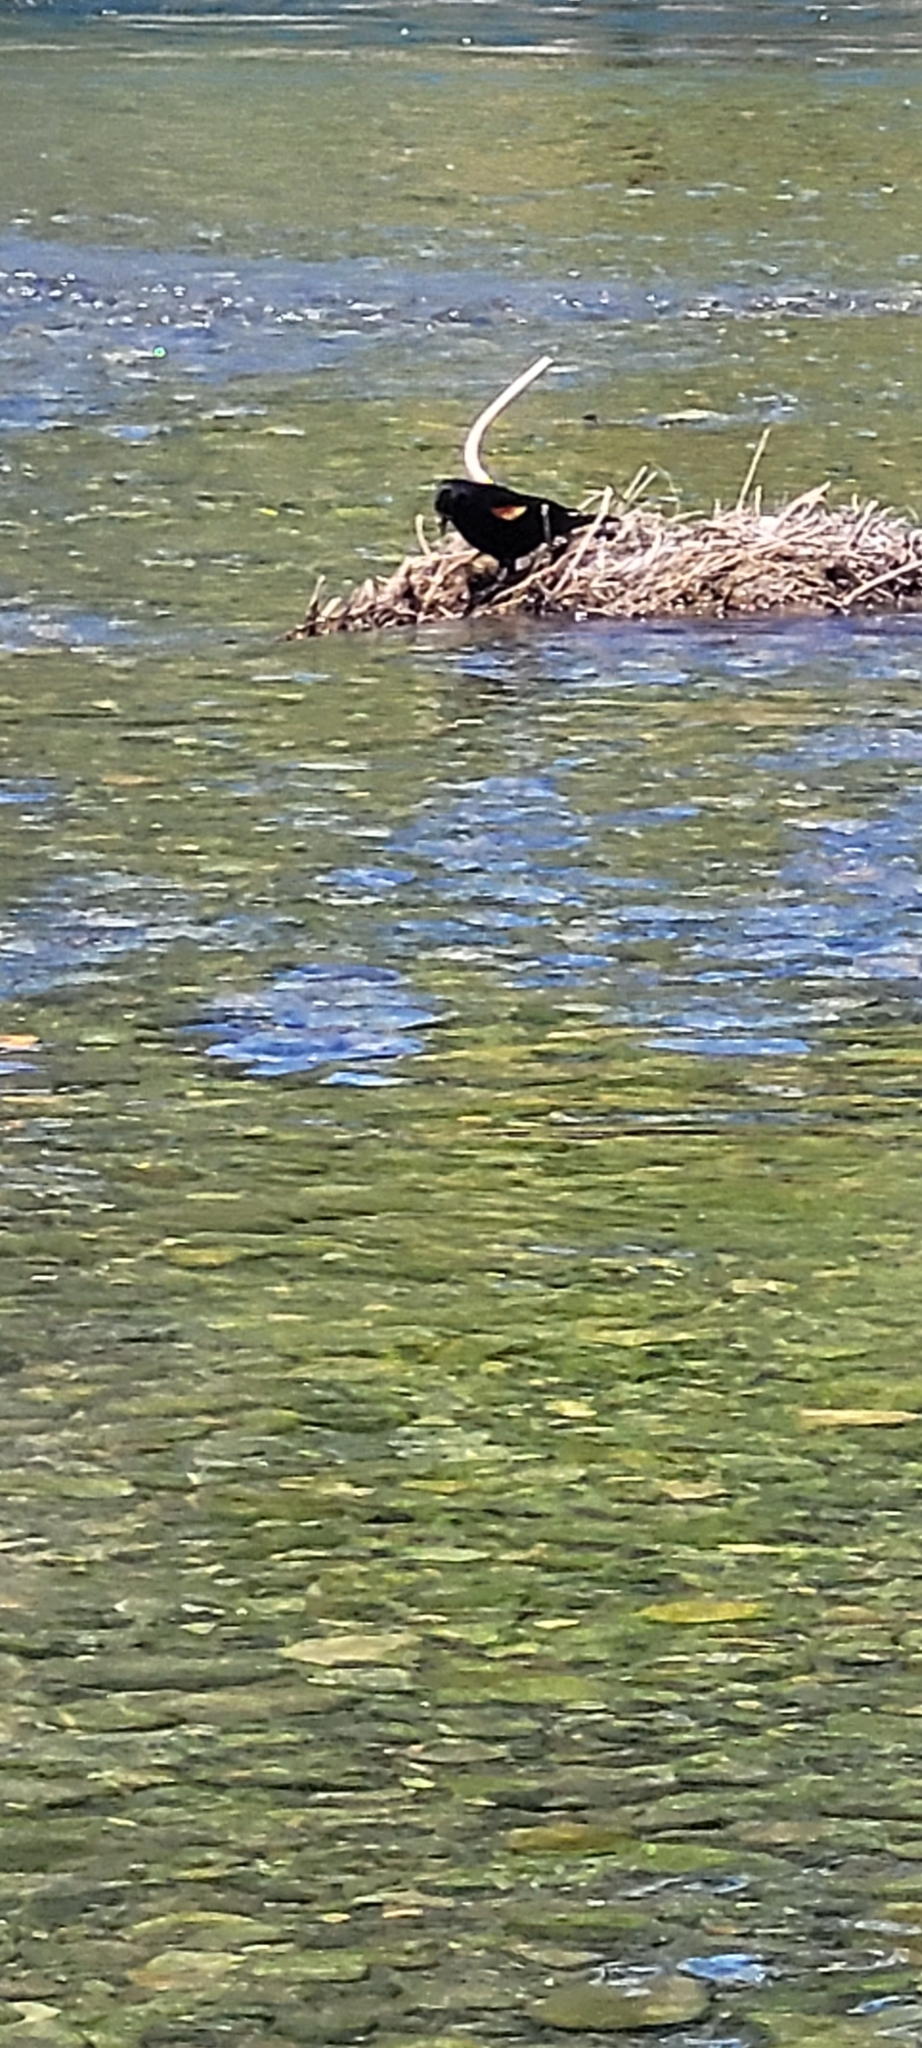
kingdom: Animalia
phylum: Chordata
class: Aves
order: Passeriformes
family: Icteridae
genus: Agelaius
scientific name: Agelaius phoeniceus
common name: Red-winged blackbird
